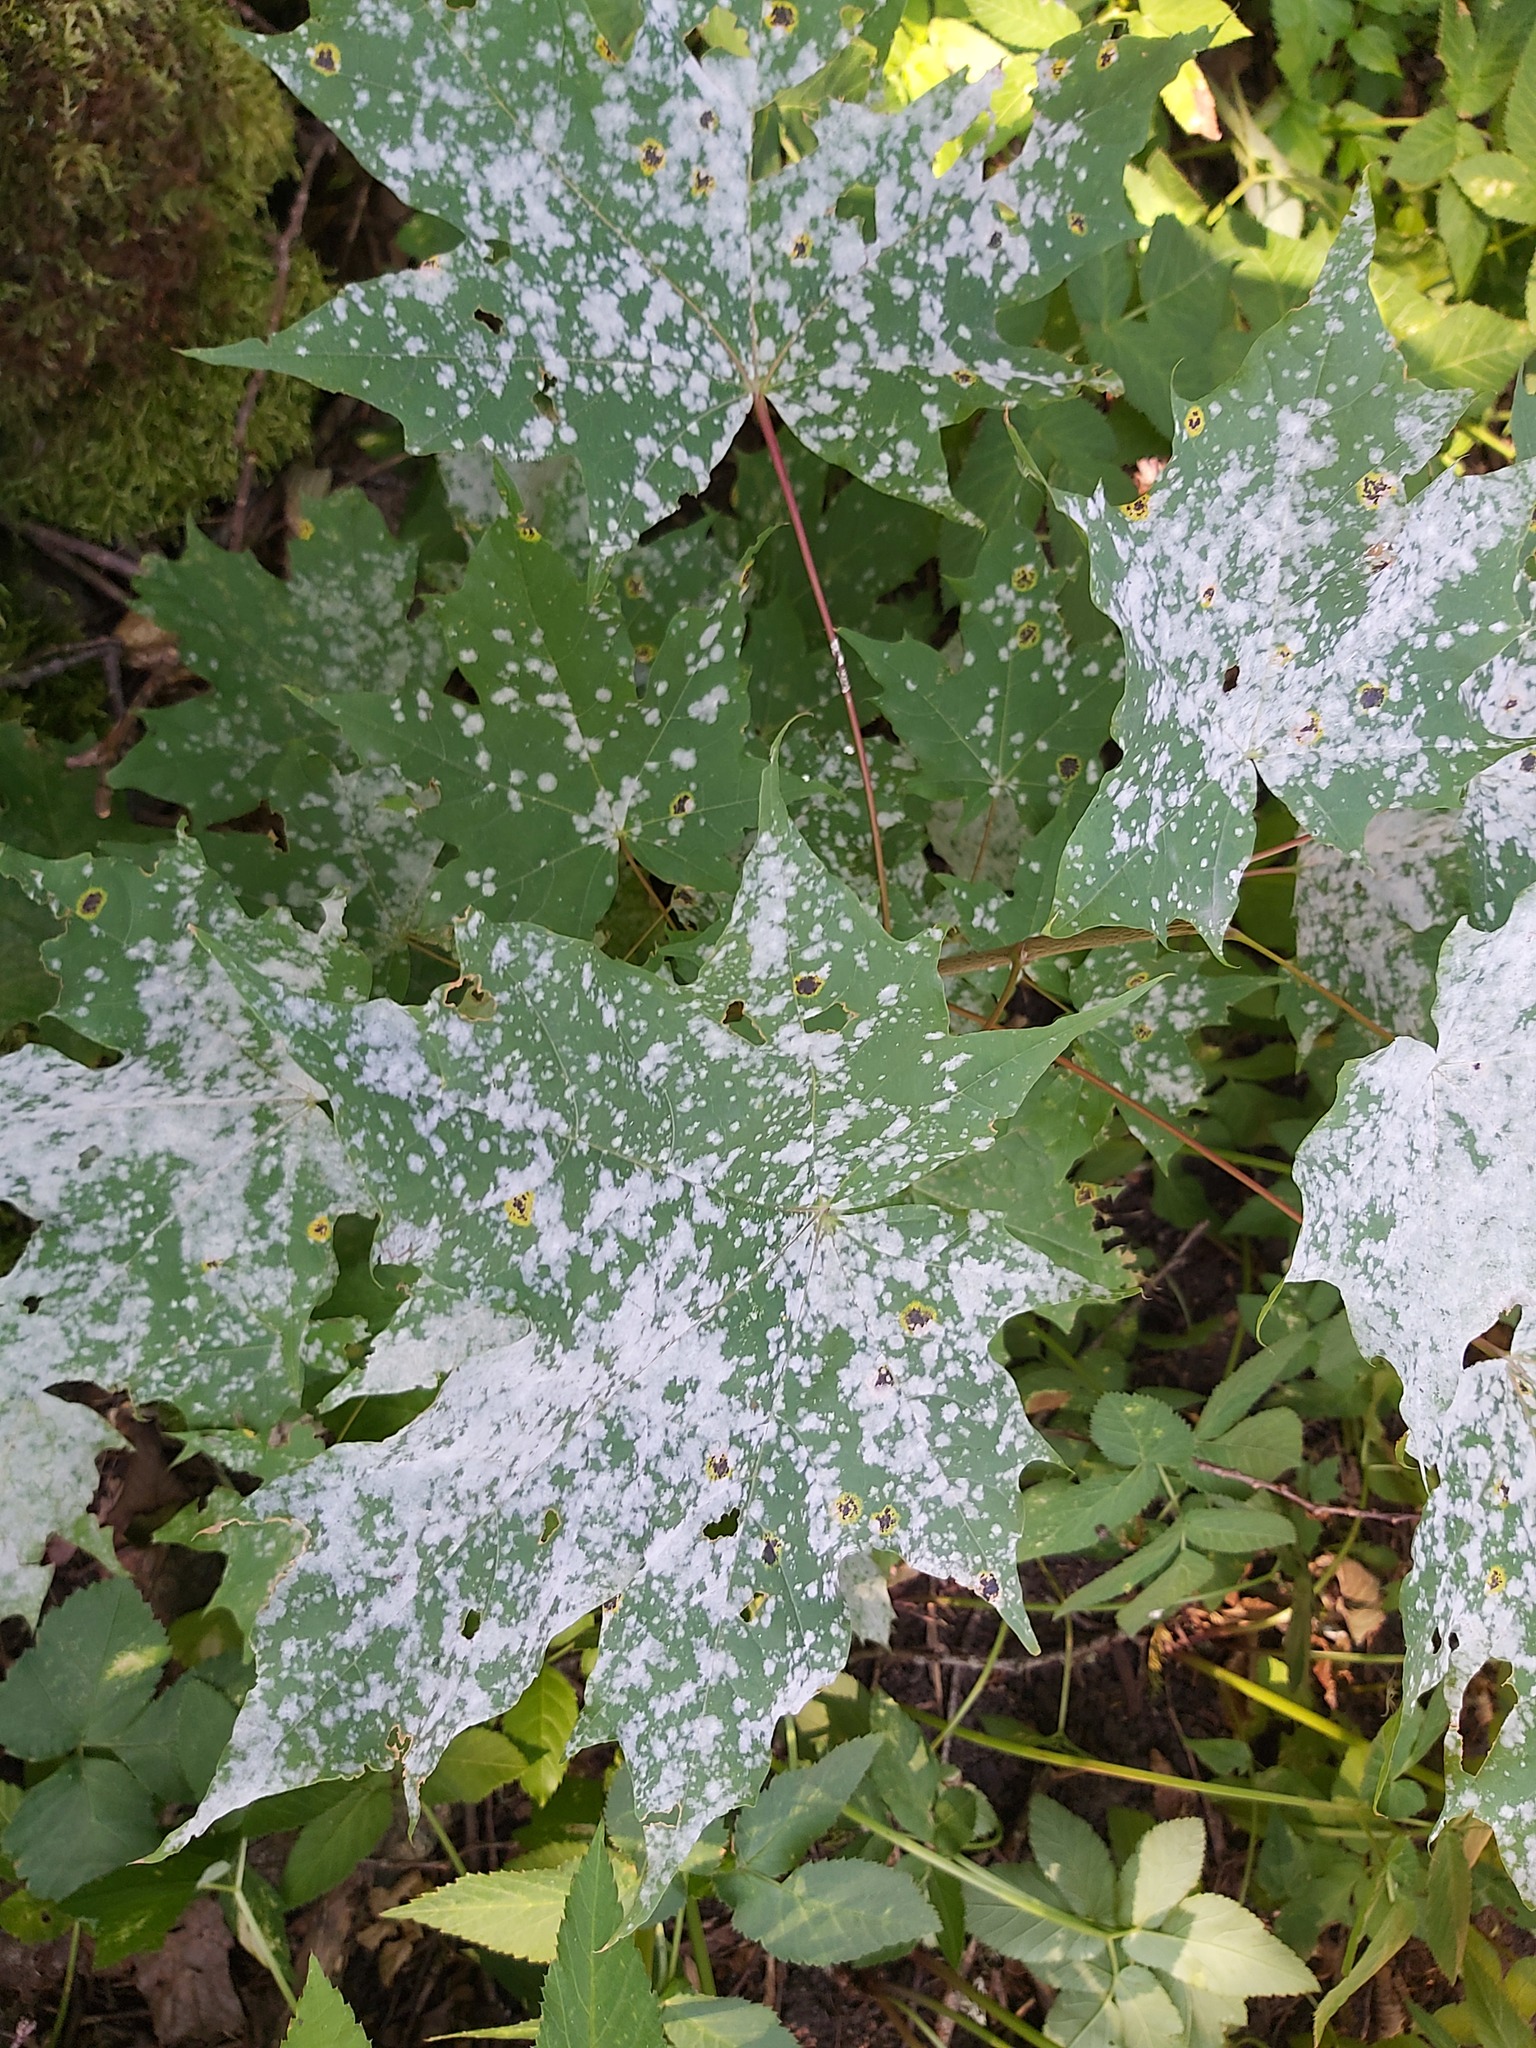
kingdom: Fungi
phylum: Ascomycota
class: Leotiomycetes
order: Helotiales
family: Erysiphaceae
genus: Sawadaea
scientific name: Sawadaea tulasnei
